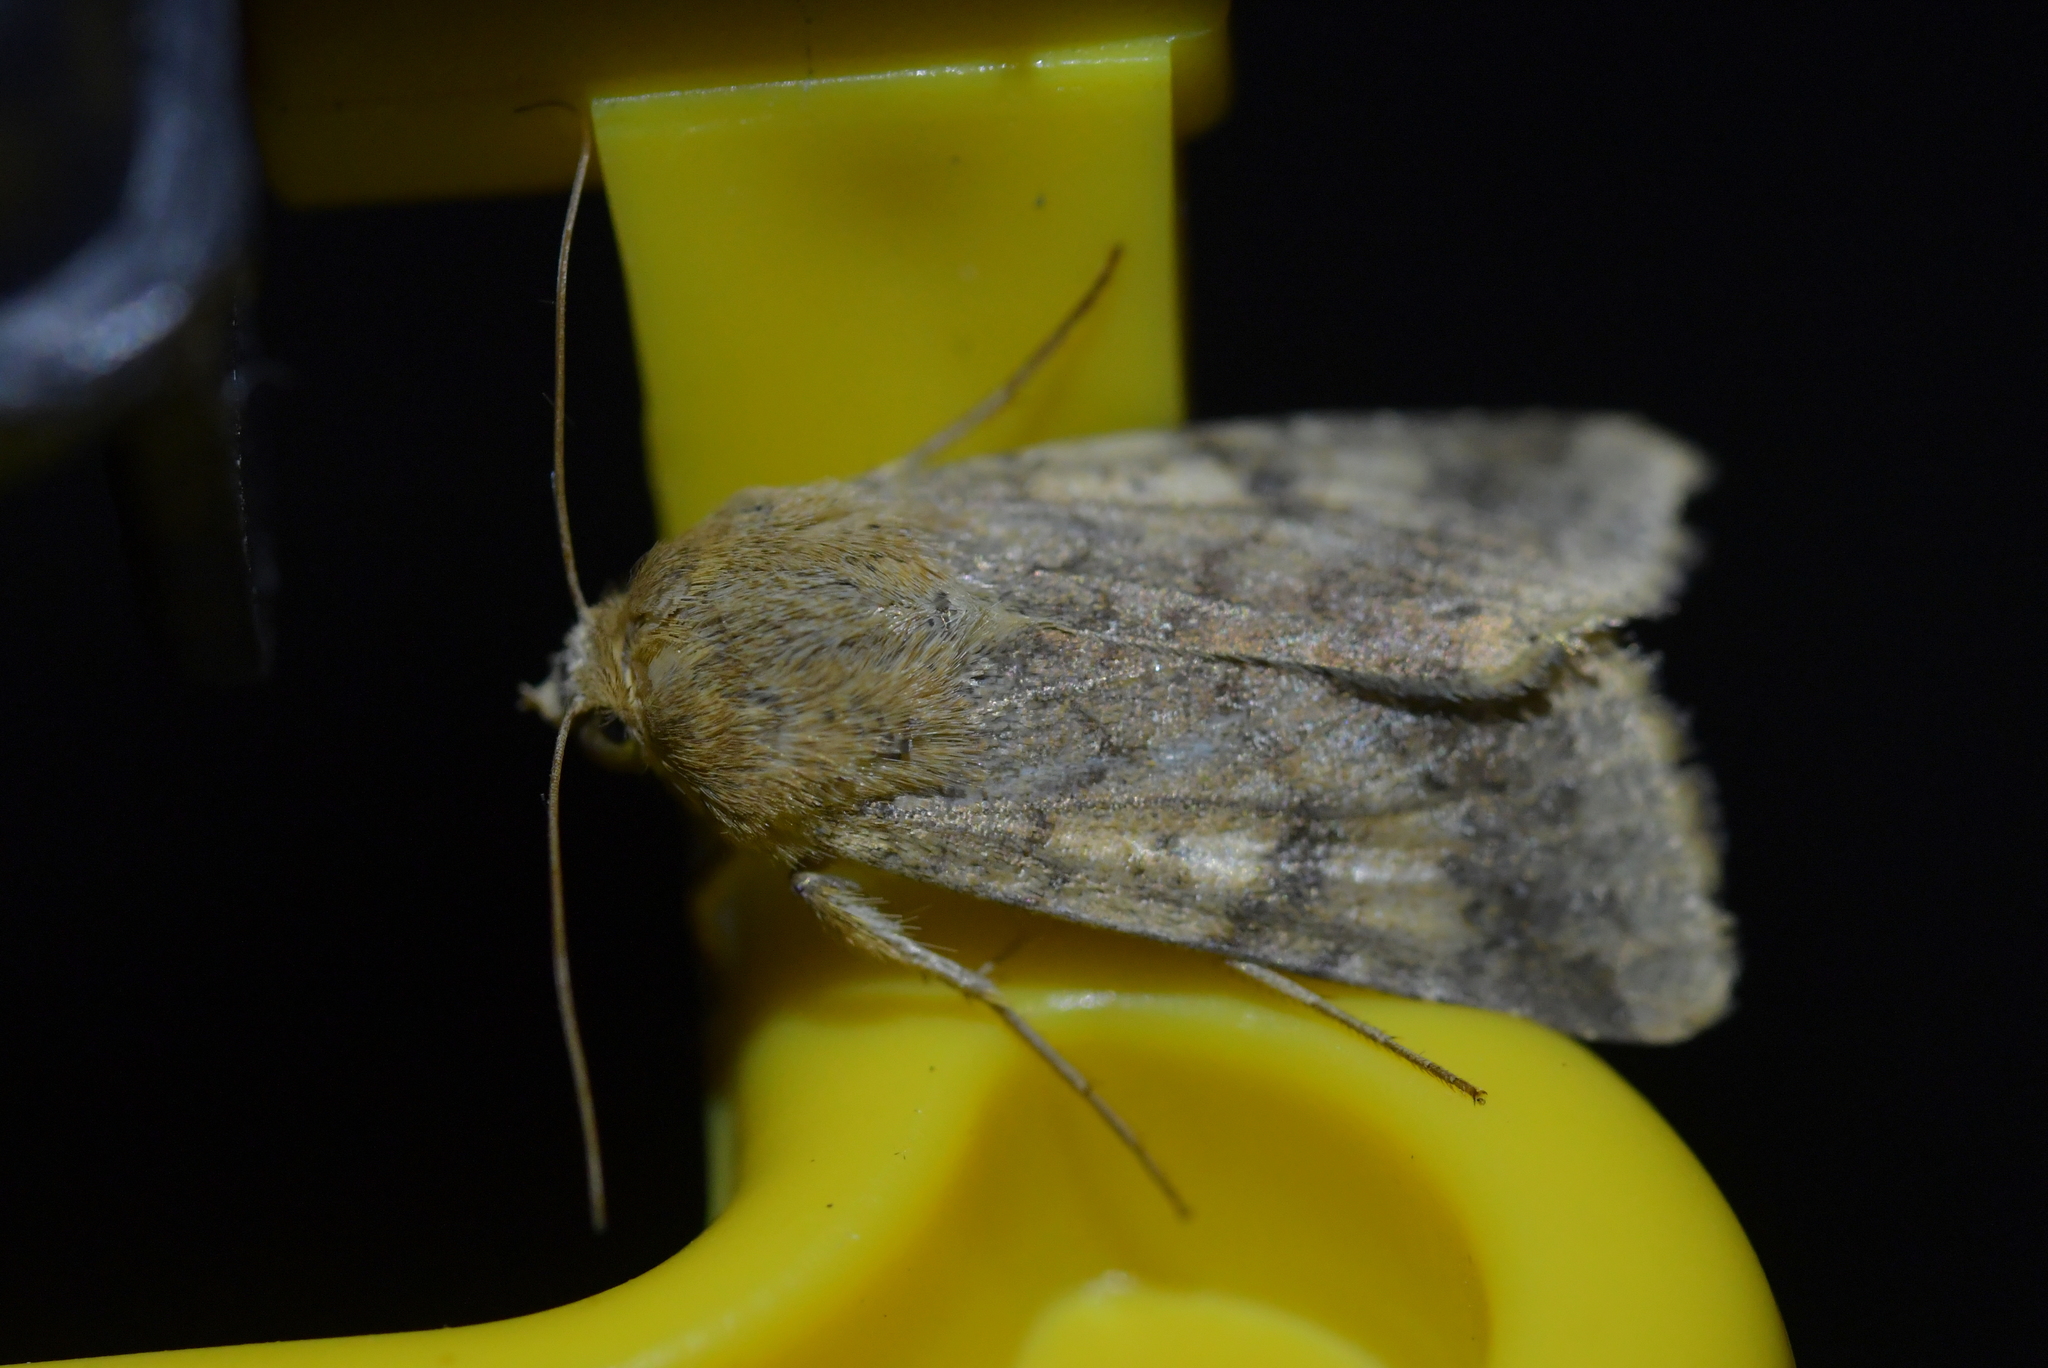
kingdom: Animalia
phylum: Arthropoda
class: Insecta
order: Lepidoptera
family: Noctuidae
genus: Helicoverpa
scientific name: Helicoverpa armigera
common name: Cotton bollworm
